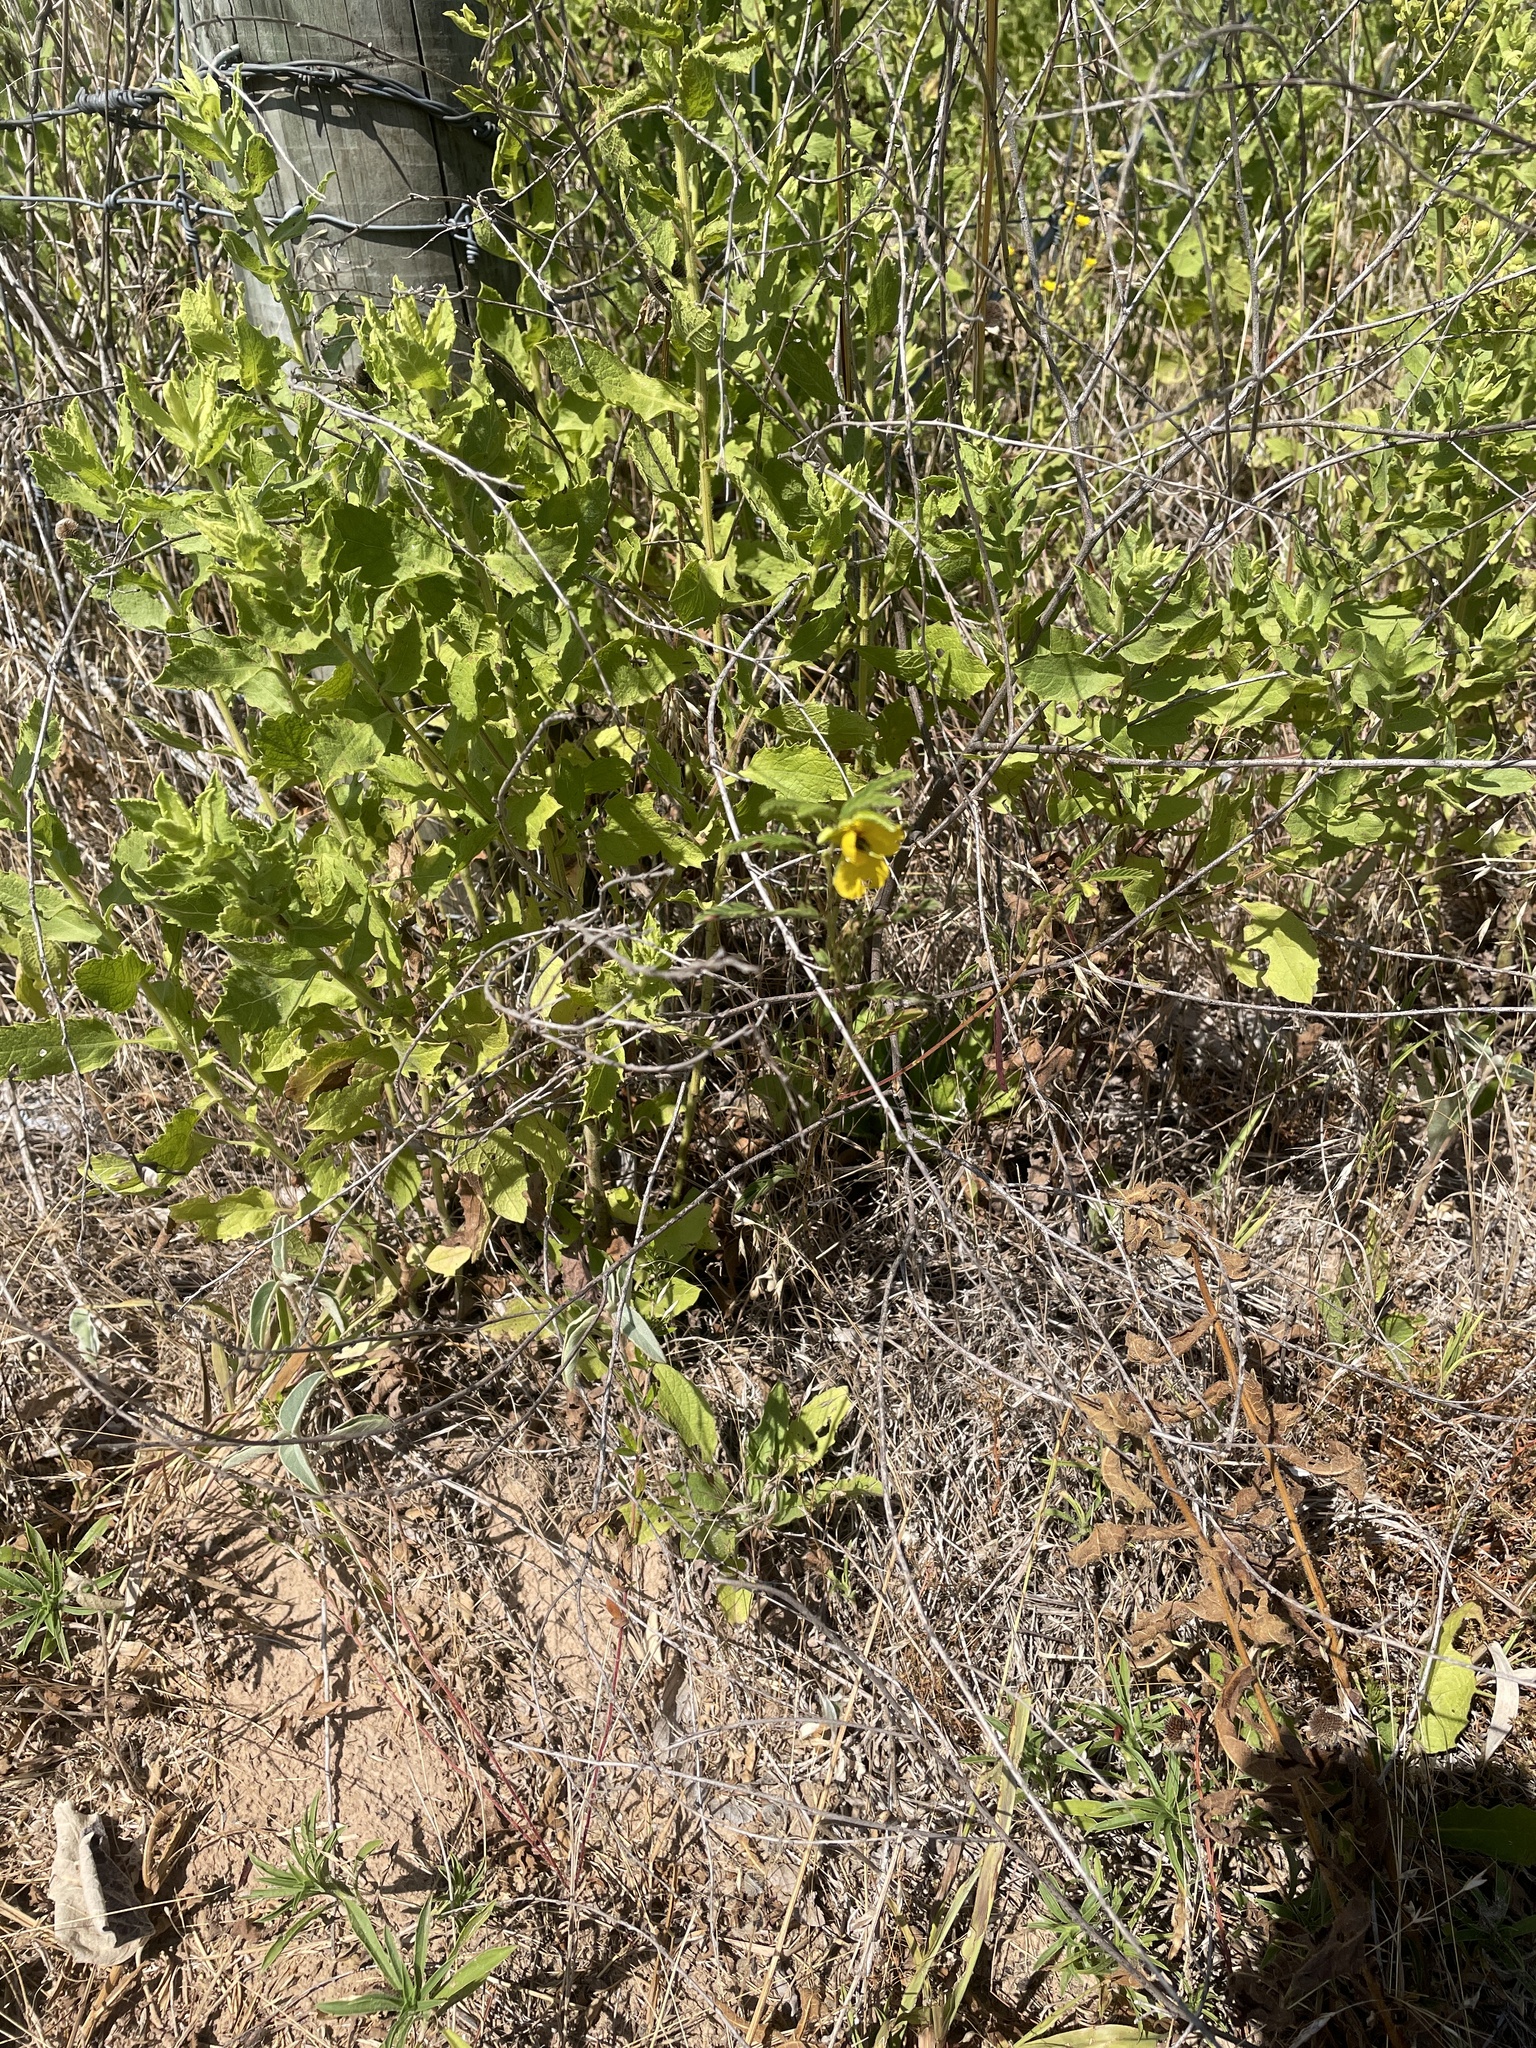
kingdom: Plantae
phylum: Tracheophyta
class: Magnoliopsida
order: Fabales
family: Fabaceae
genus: Chamaecrista
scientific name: Chamaecrista fasciculata
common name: Golden cassia
